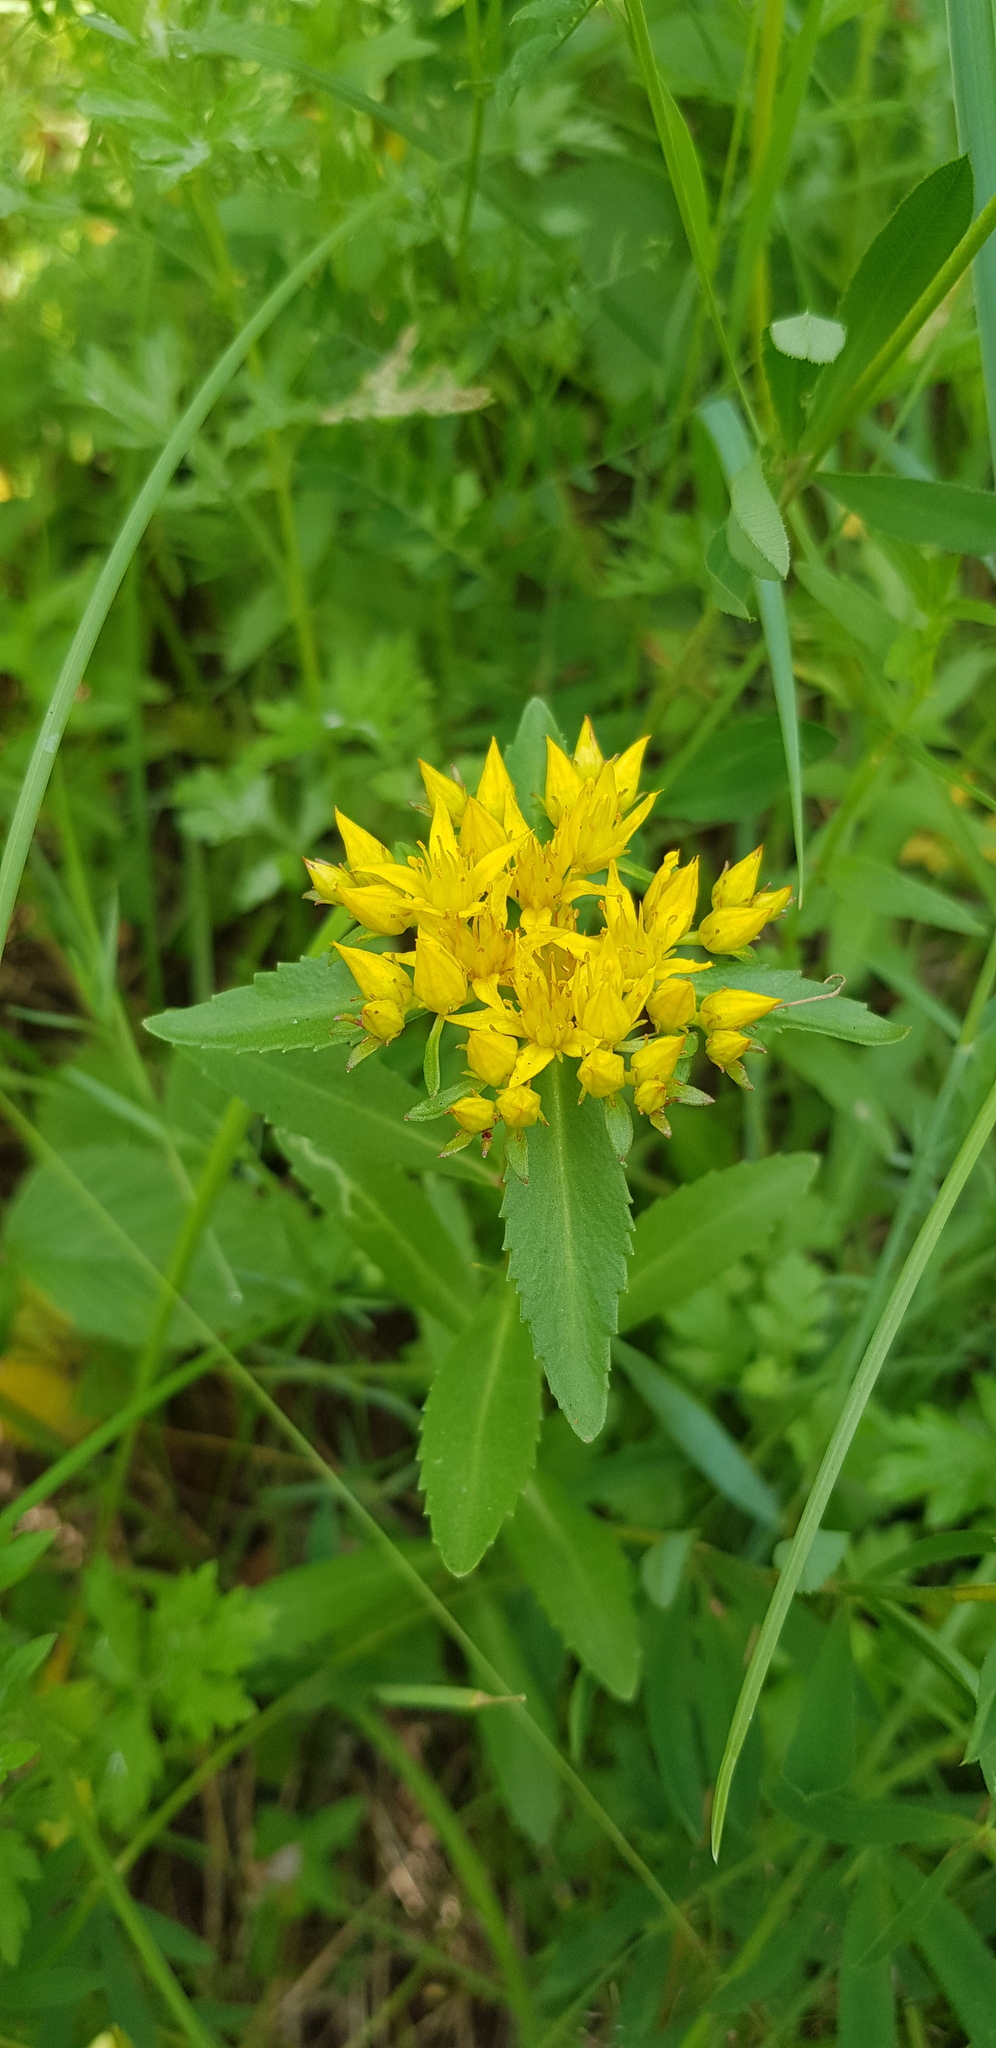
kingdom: Plantae
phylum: Tracheophyta
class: Magnoliopsida
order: Saxifragales
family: Crassulaceae
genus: Phedimus
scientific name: Phedimus aizoon
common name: Orpin aizoon
